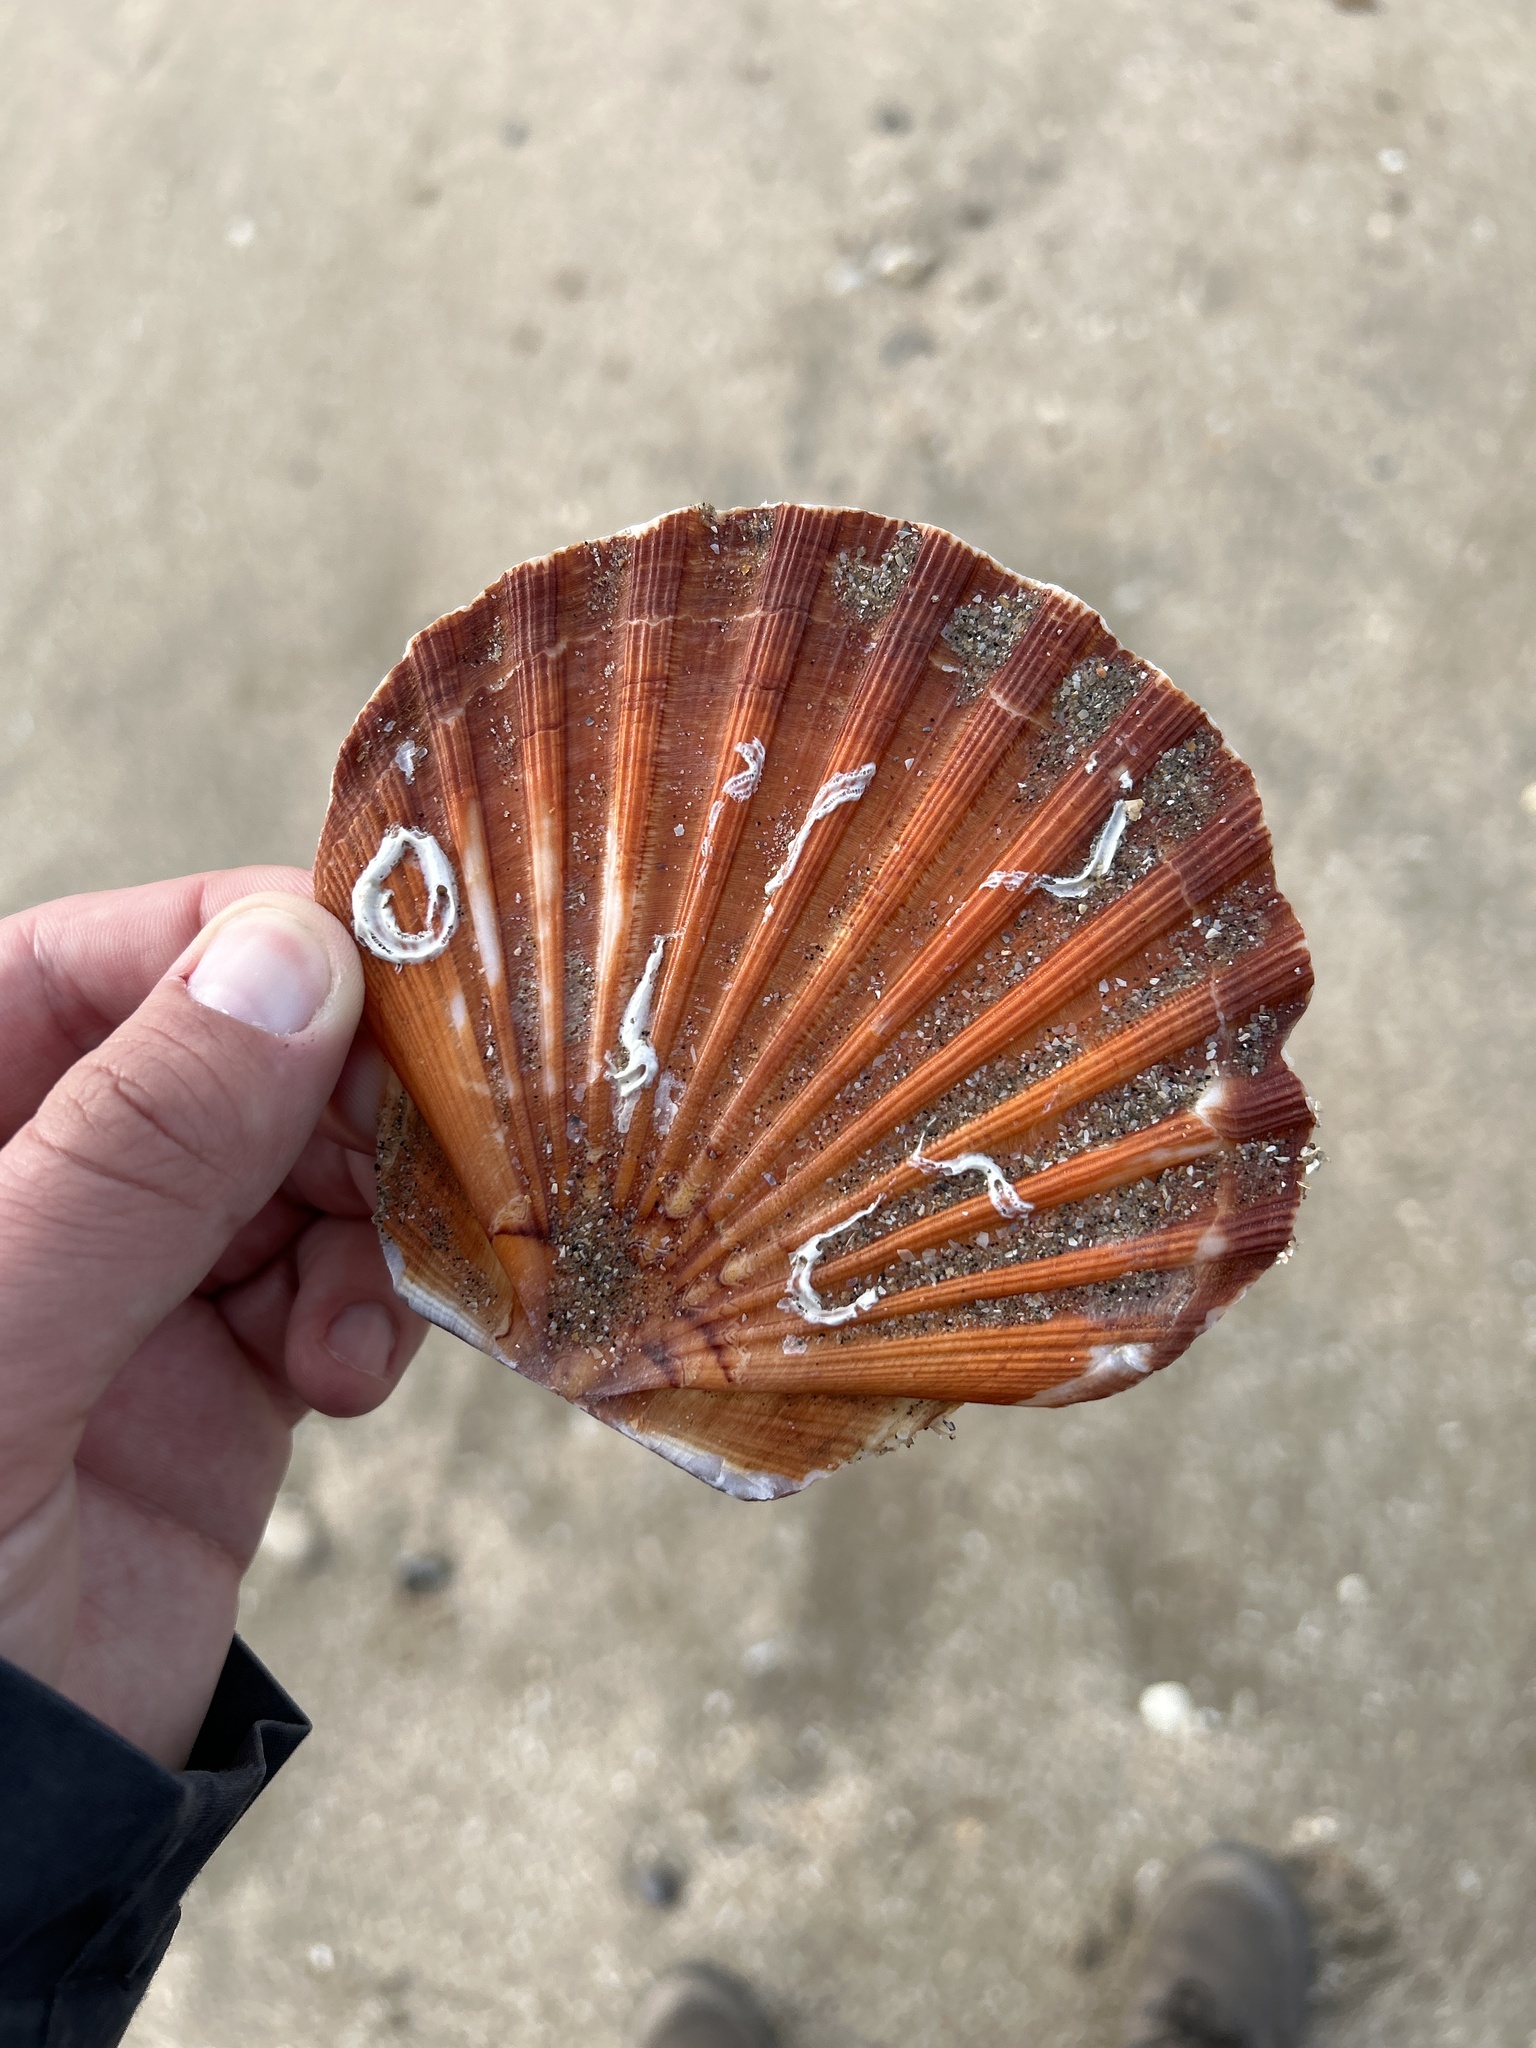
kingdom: Animalia
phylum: Mollusca
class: Bivalvia
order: Pectinida
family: Pectinidae
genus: Pecten
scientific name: Pecten maximus
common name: Great scallop
